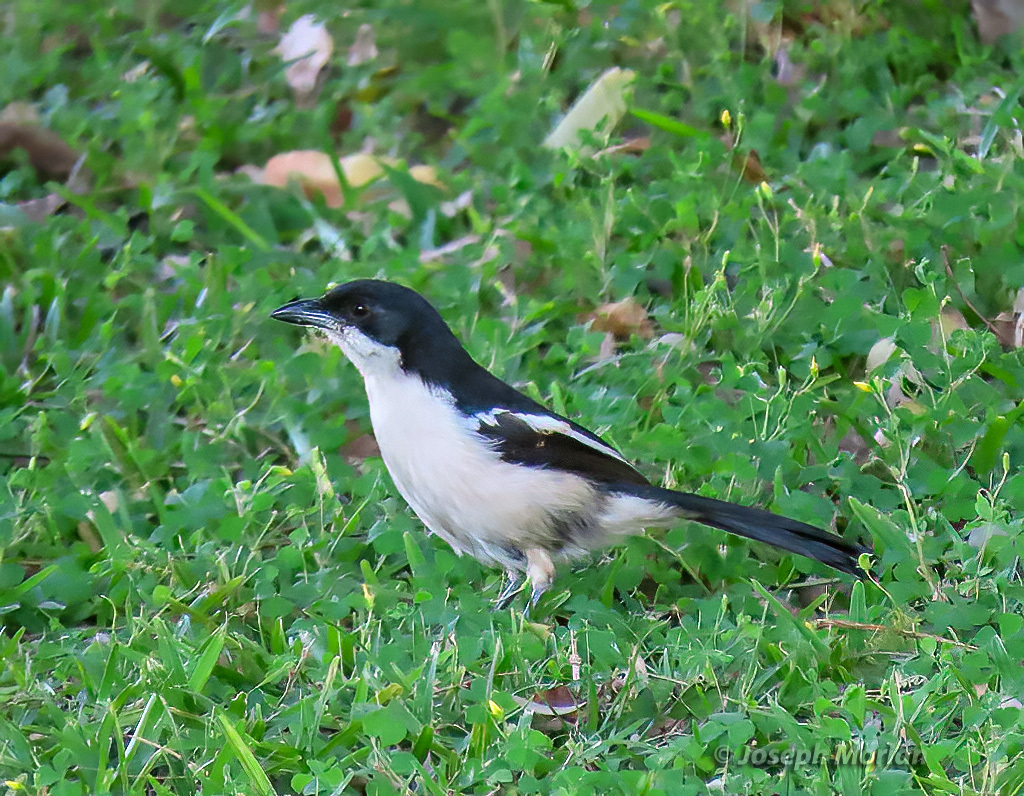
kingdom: Animalia
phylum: Chordata
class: Aves
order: Passeriformes
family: Malaconotidae
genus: Laniarius
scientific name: Laniarius major
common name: Tropical boubou
